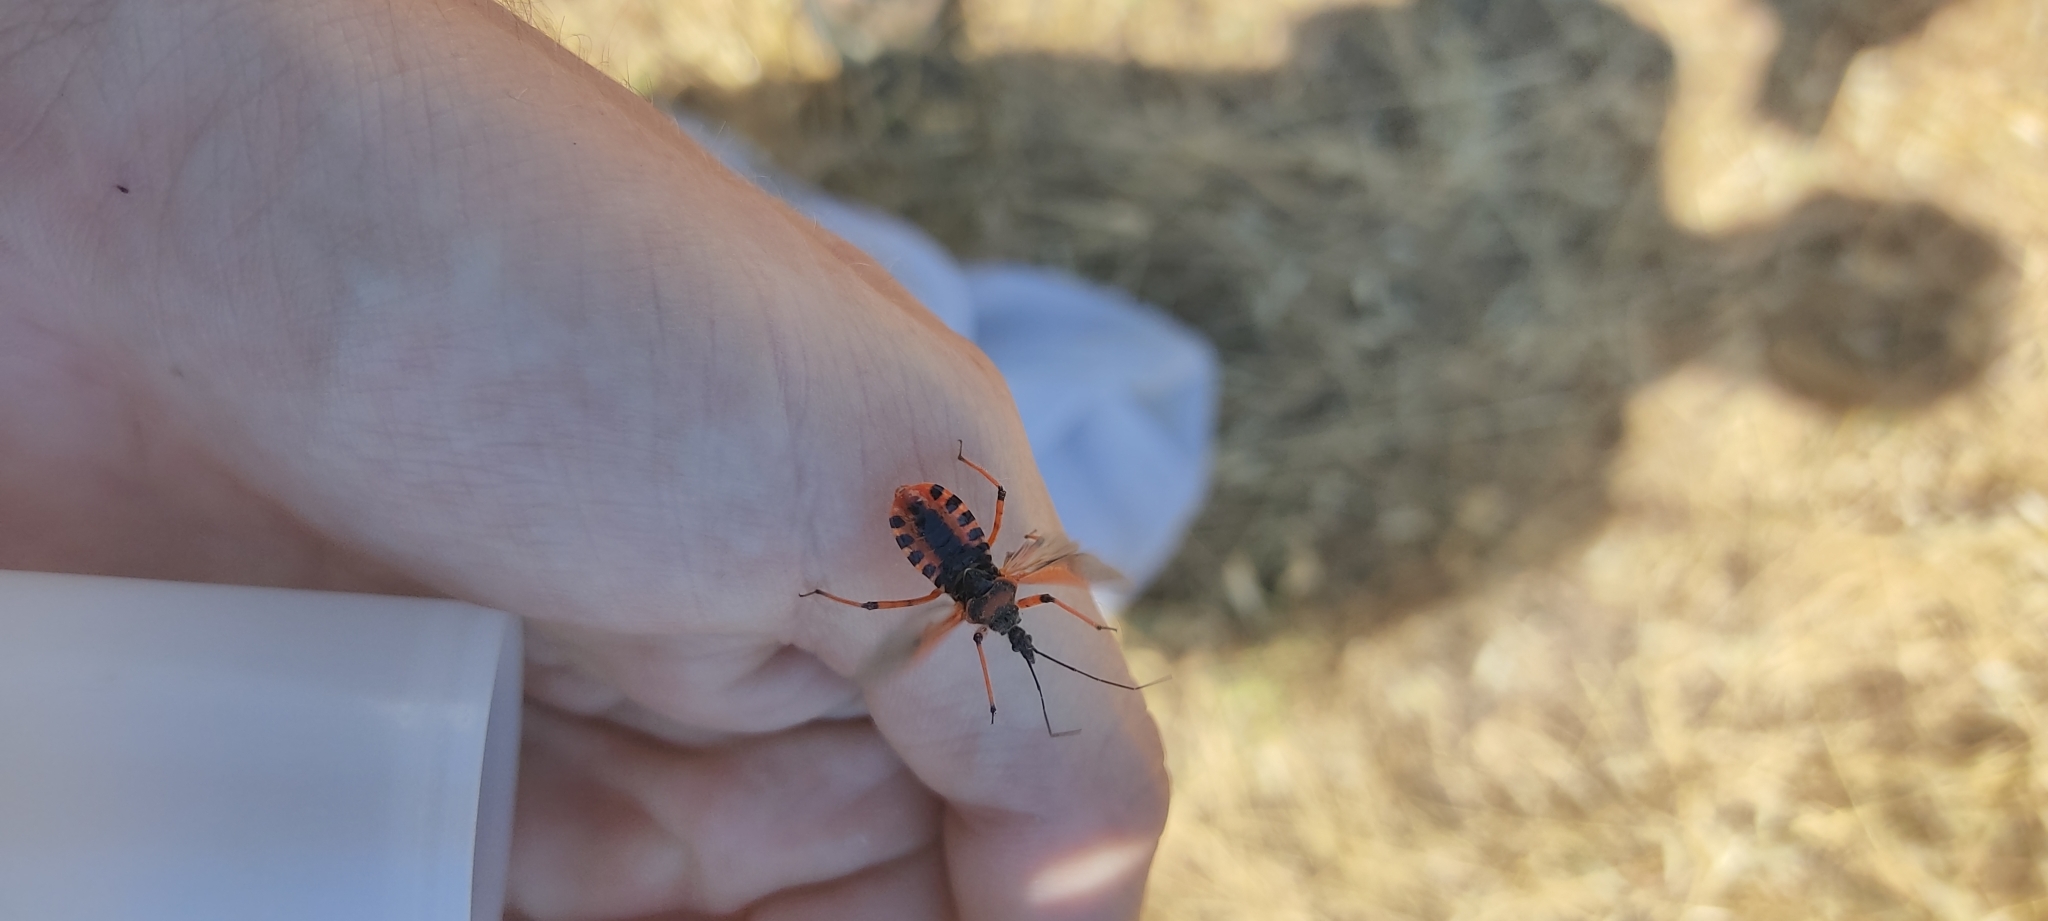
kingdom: Animalia
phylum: Arthropoda
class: Insecta
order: Hemiptera
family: Reduviidae
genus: Rhynocoris
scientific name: Rhynocoris iracundus
